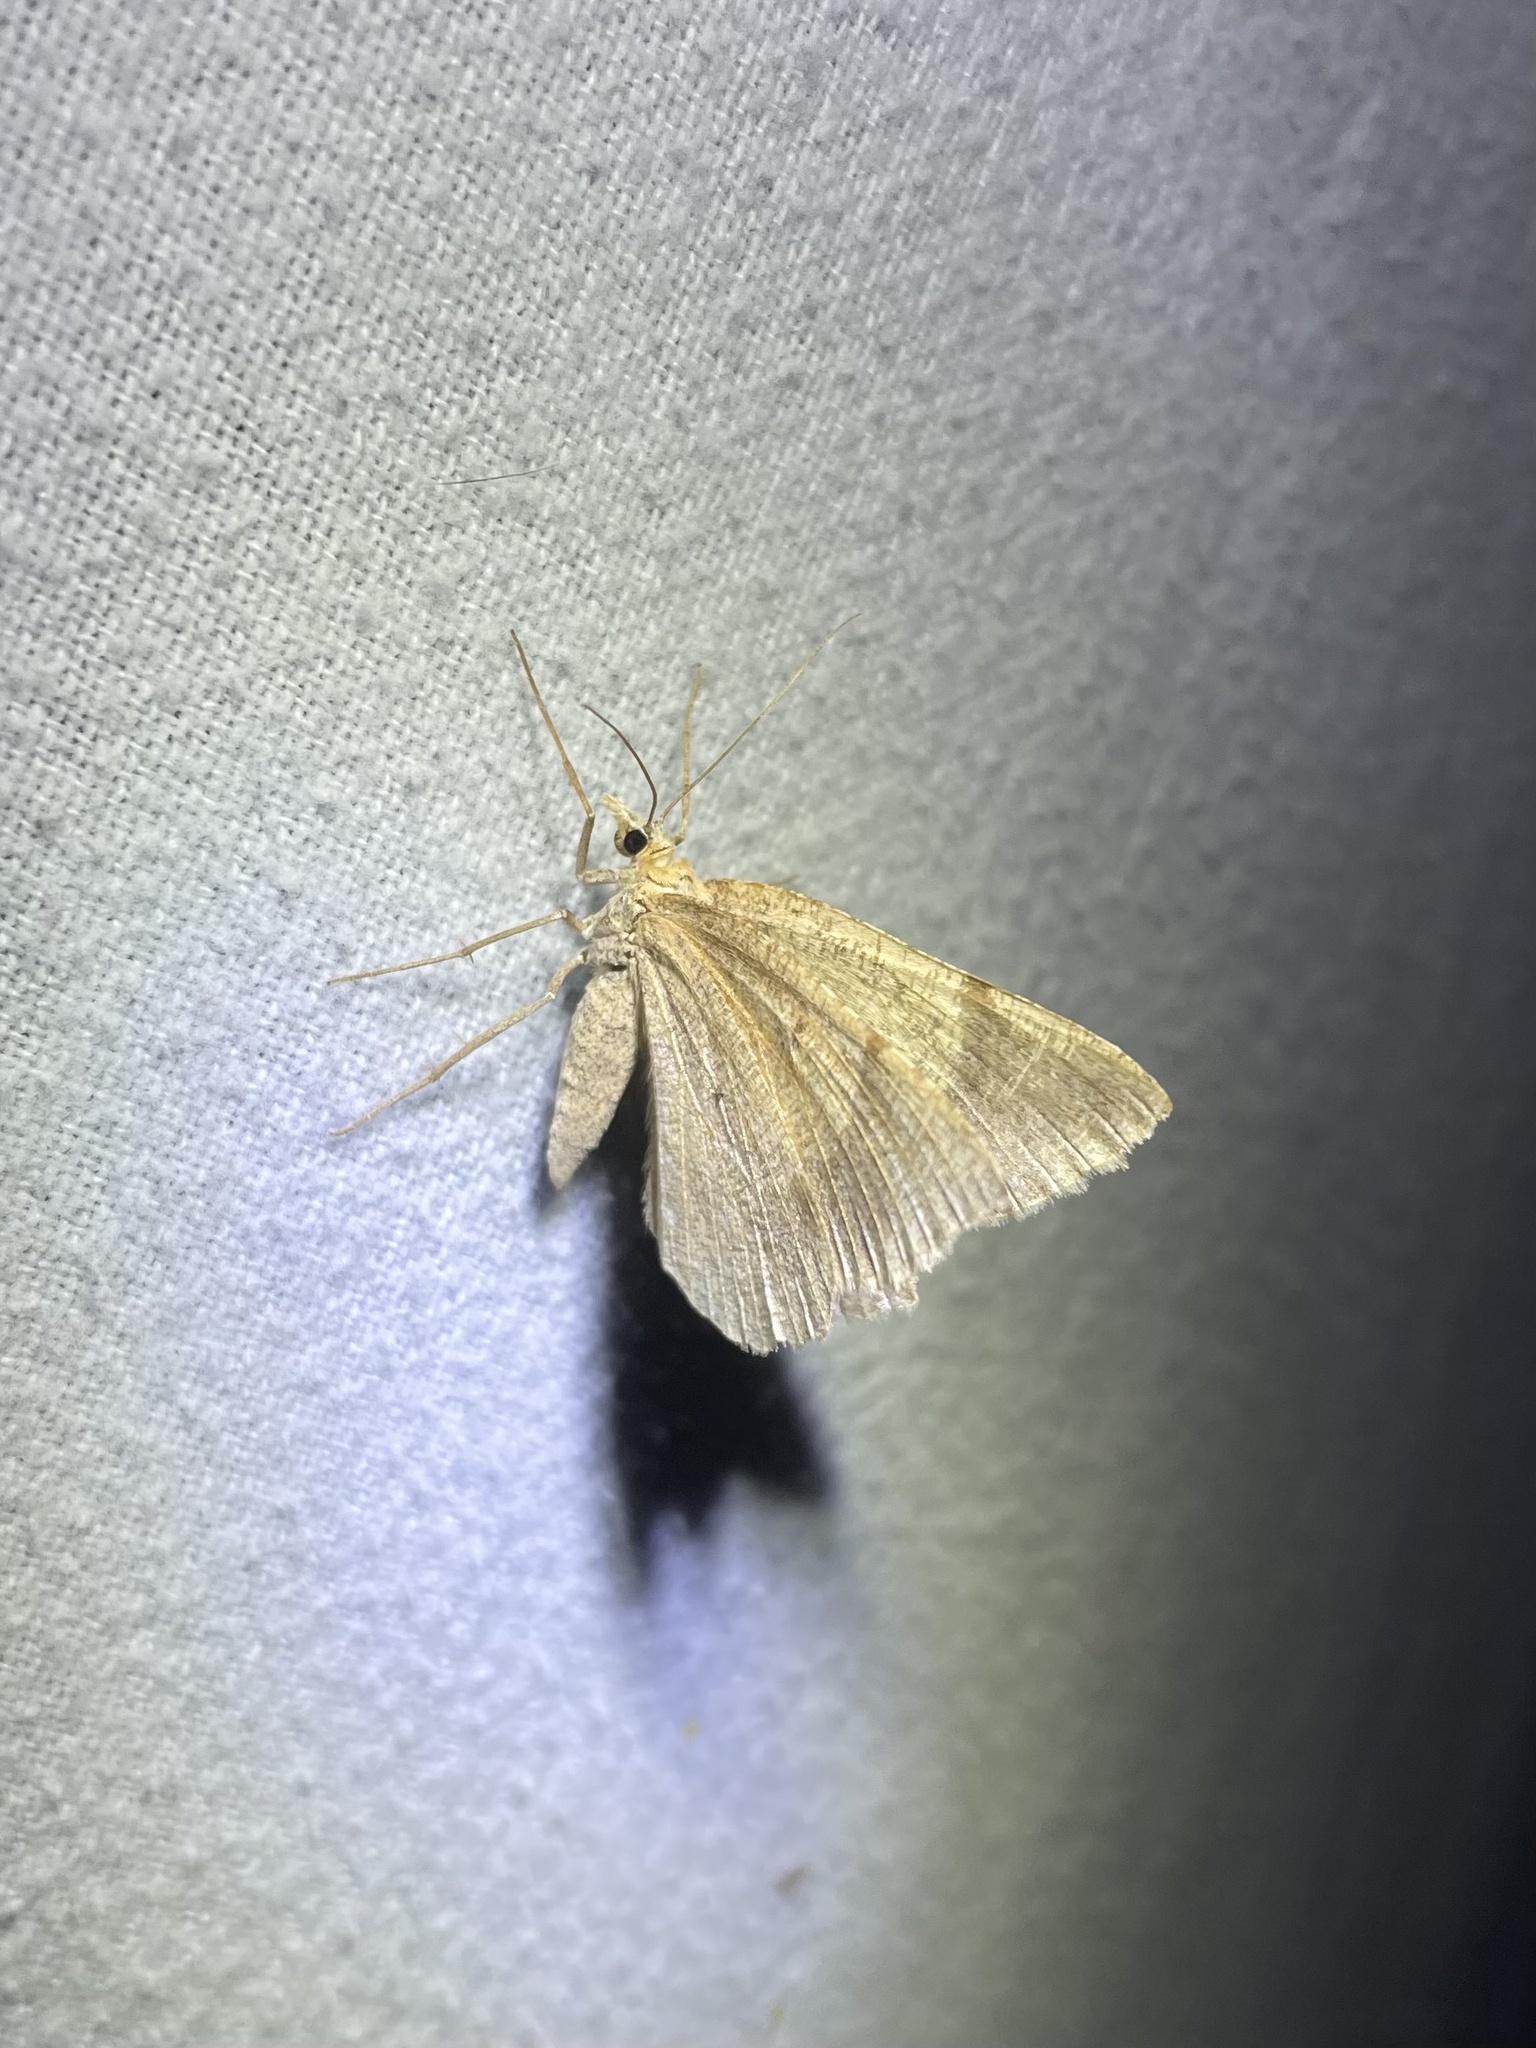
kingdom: Animalia
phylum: Arthropoda
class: Insecta
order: Lepidoptera
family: Geometridae
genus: Sericosema
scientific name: Sericosema juturnaria
